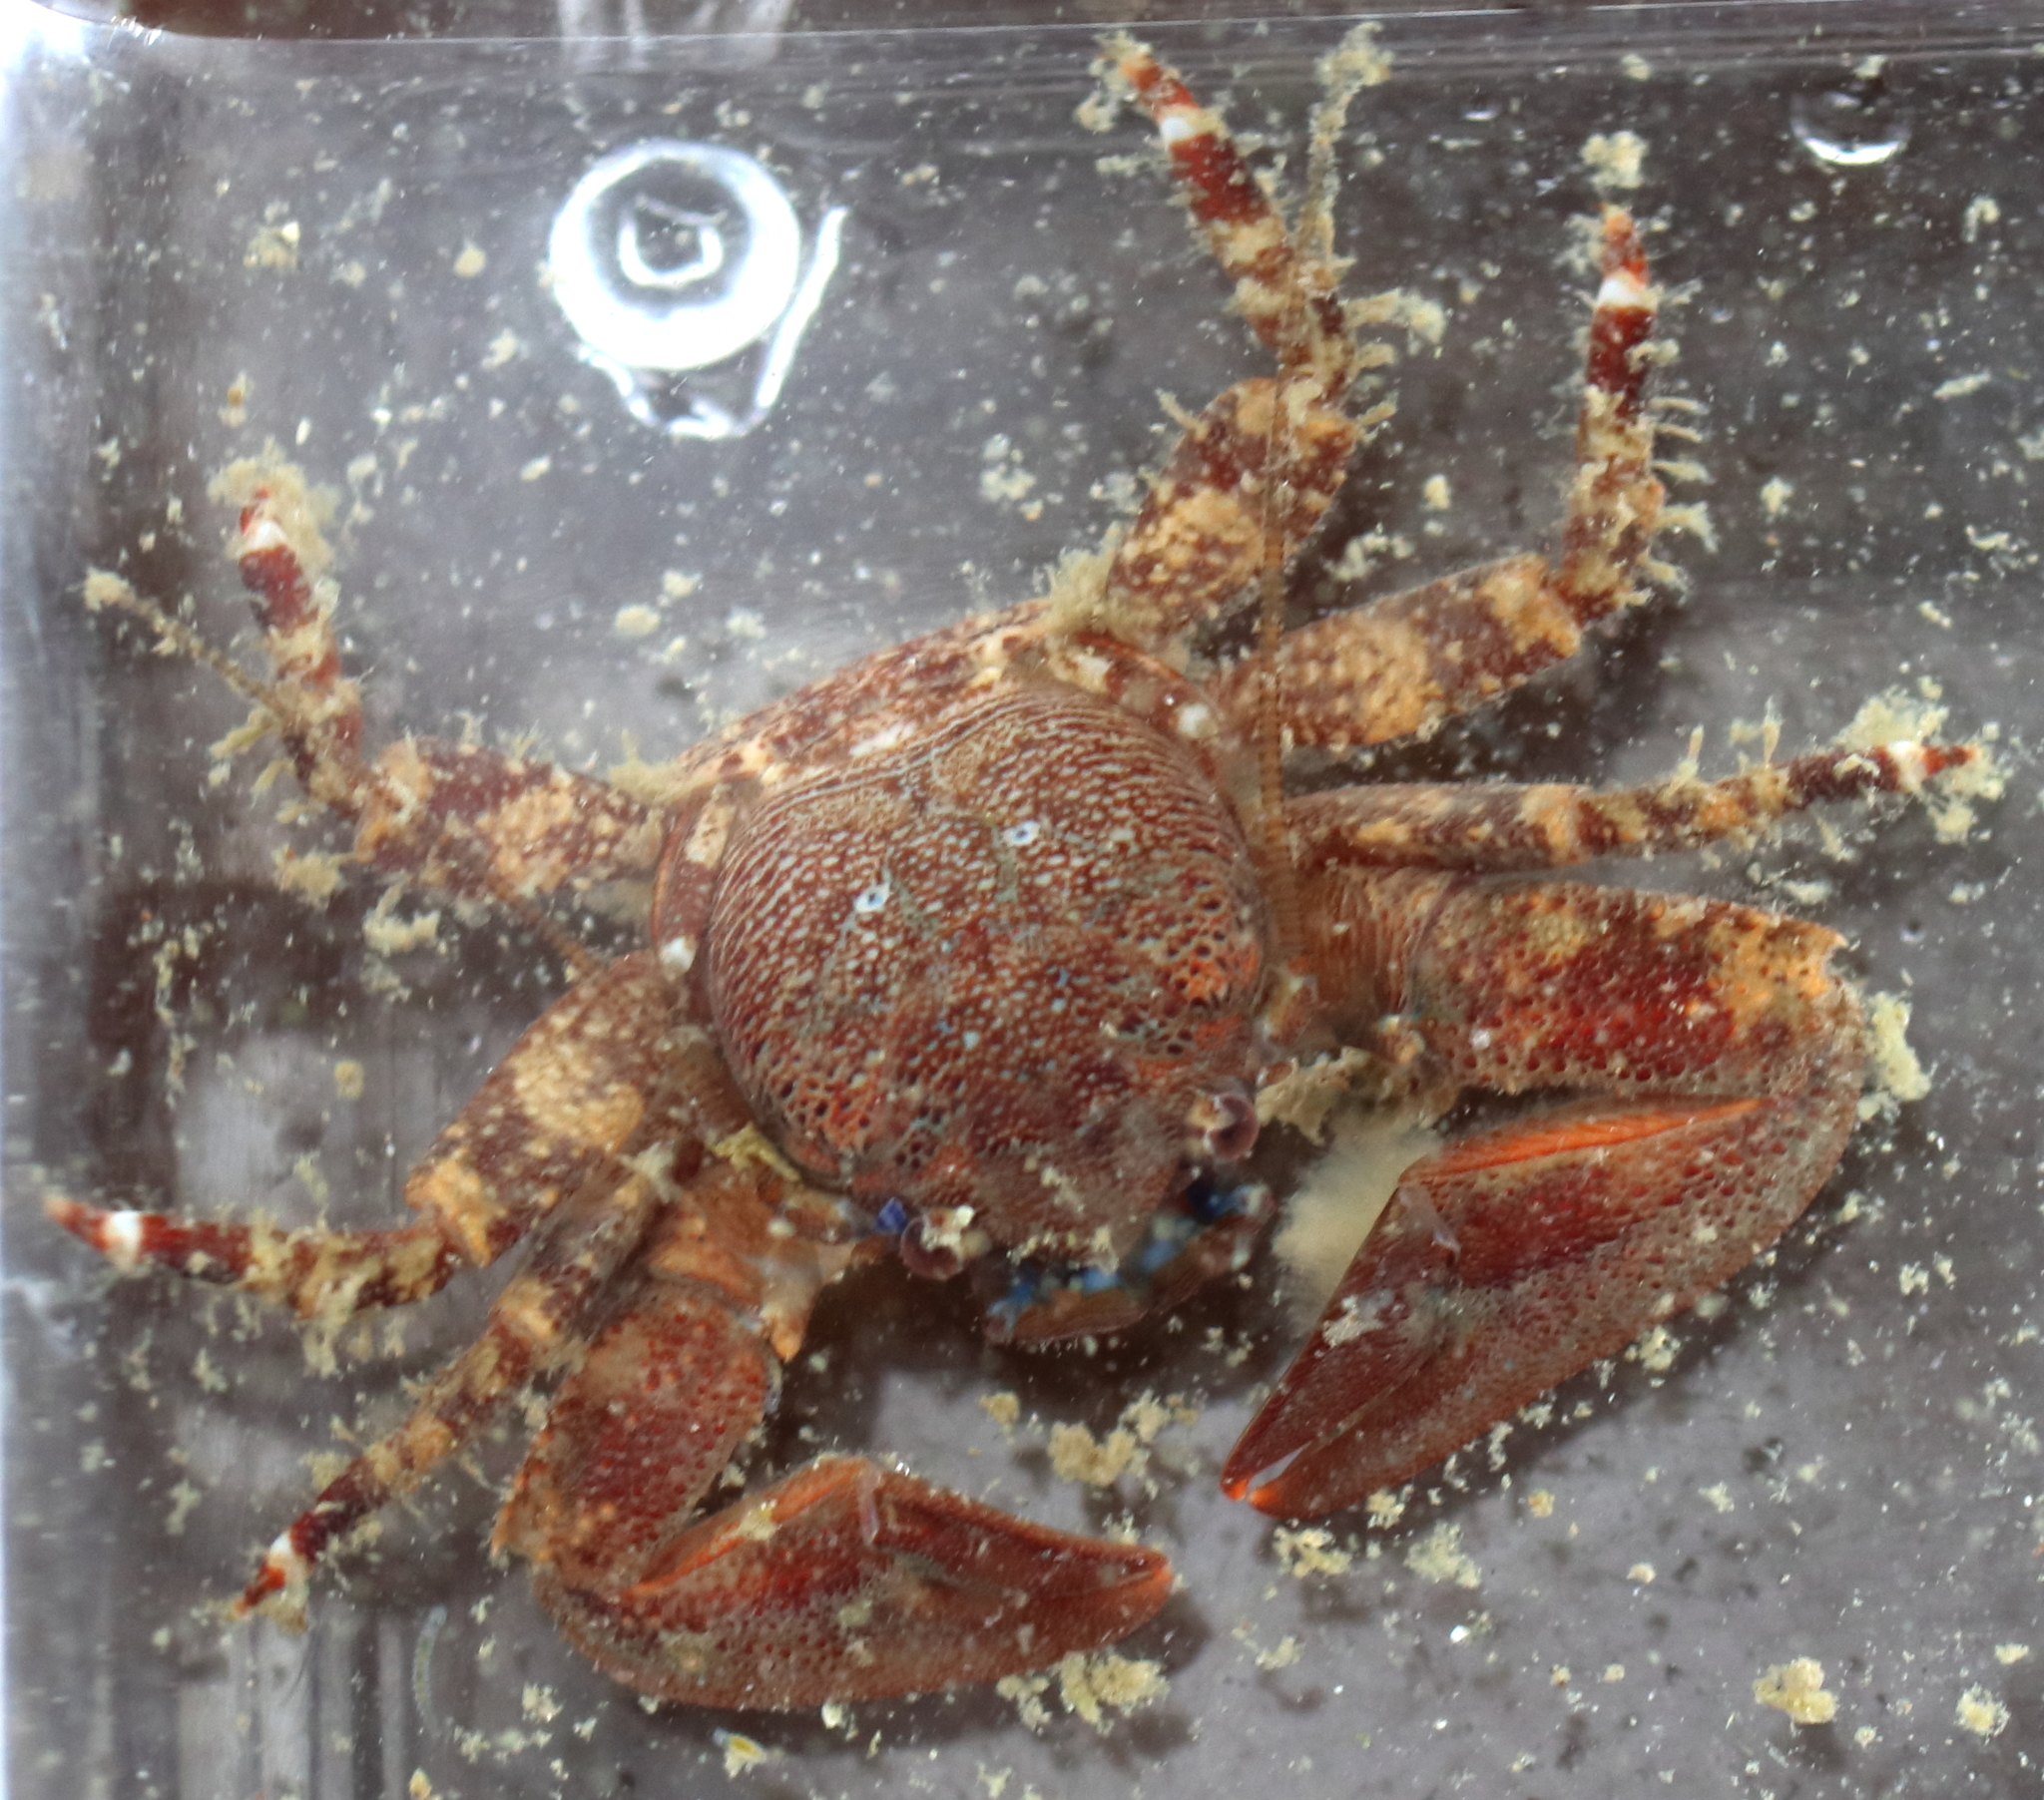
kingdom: Animalia
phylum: Arthropoda
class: Malacostraca
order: Decapoda
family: Porcellanidae
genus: Petrolisthes
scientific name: Petrolisthes eriomerus
